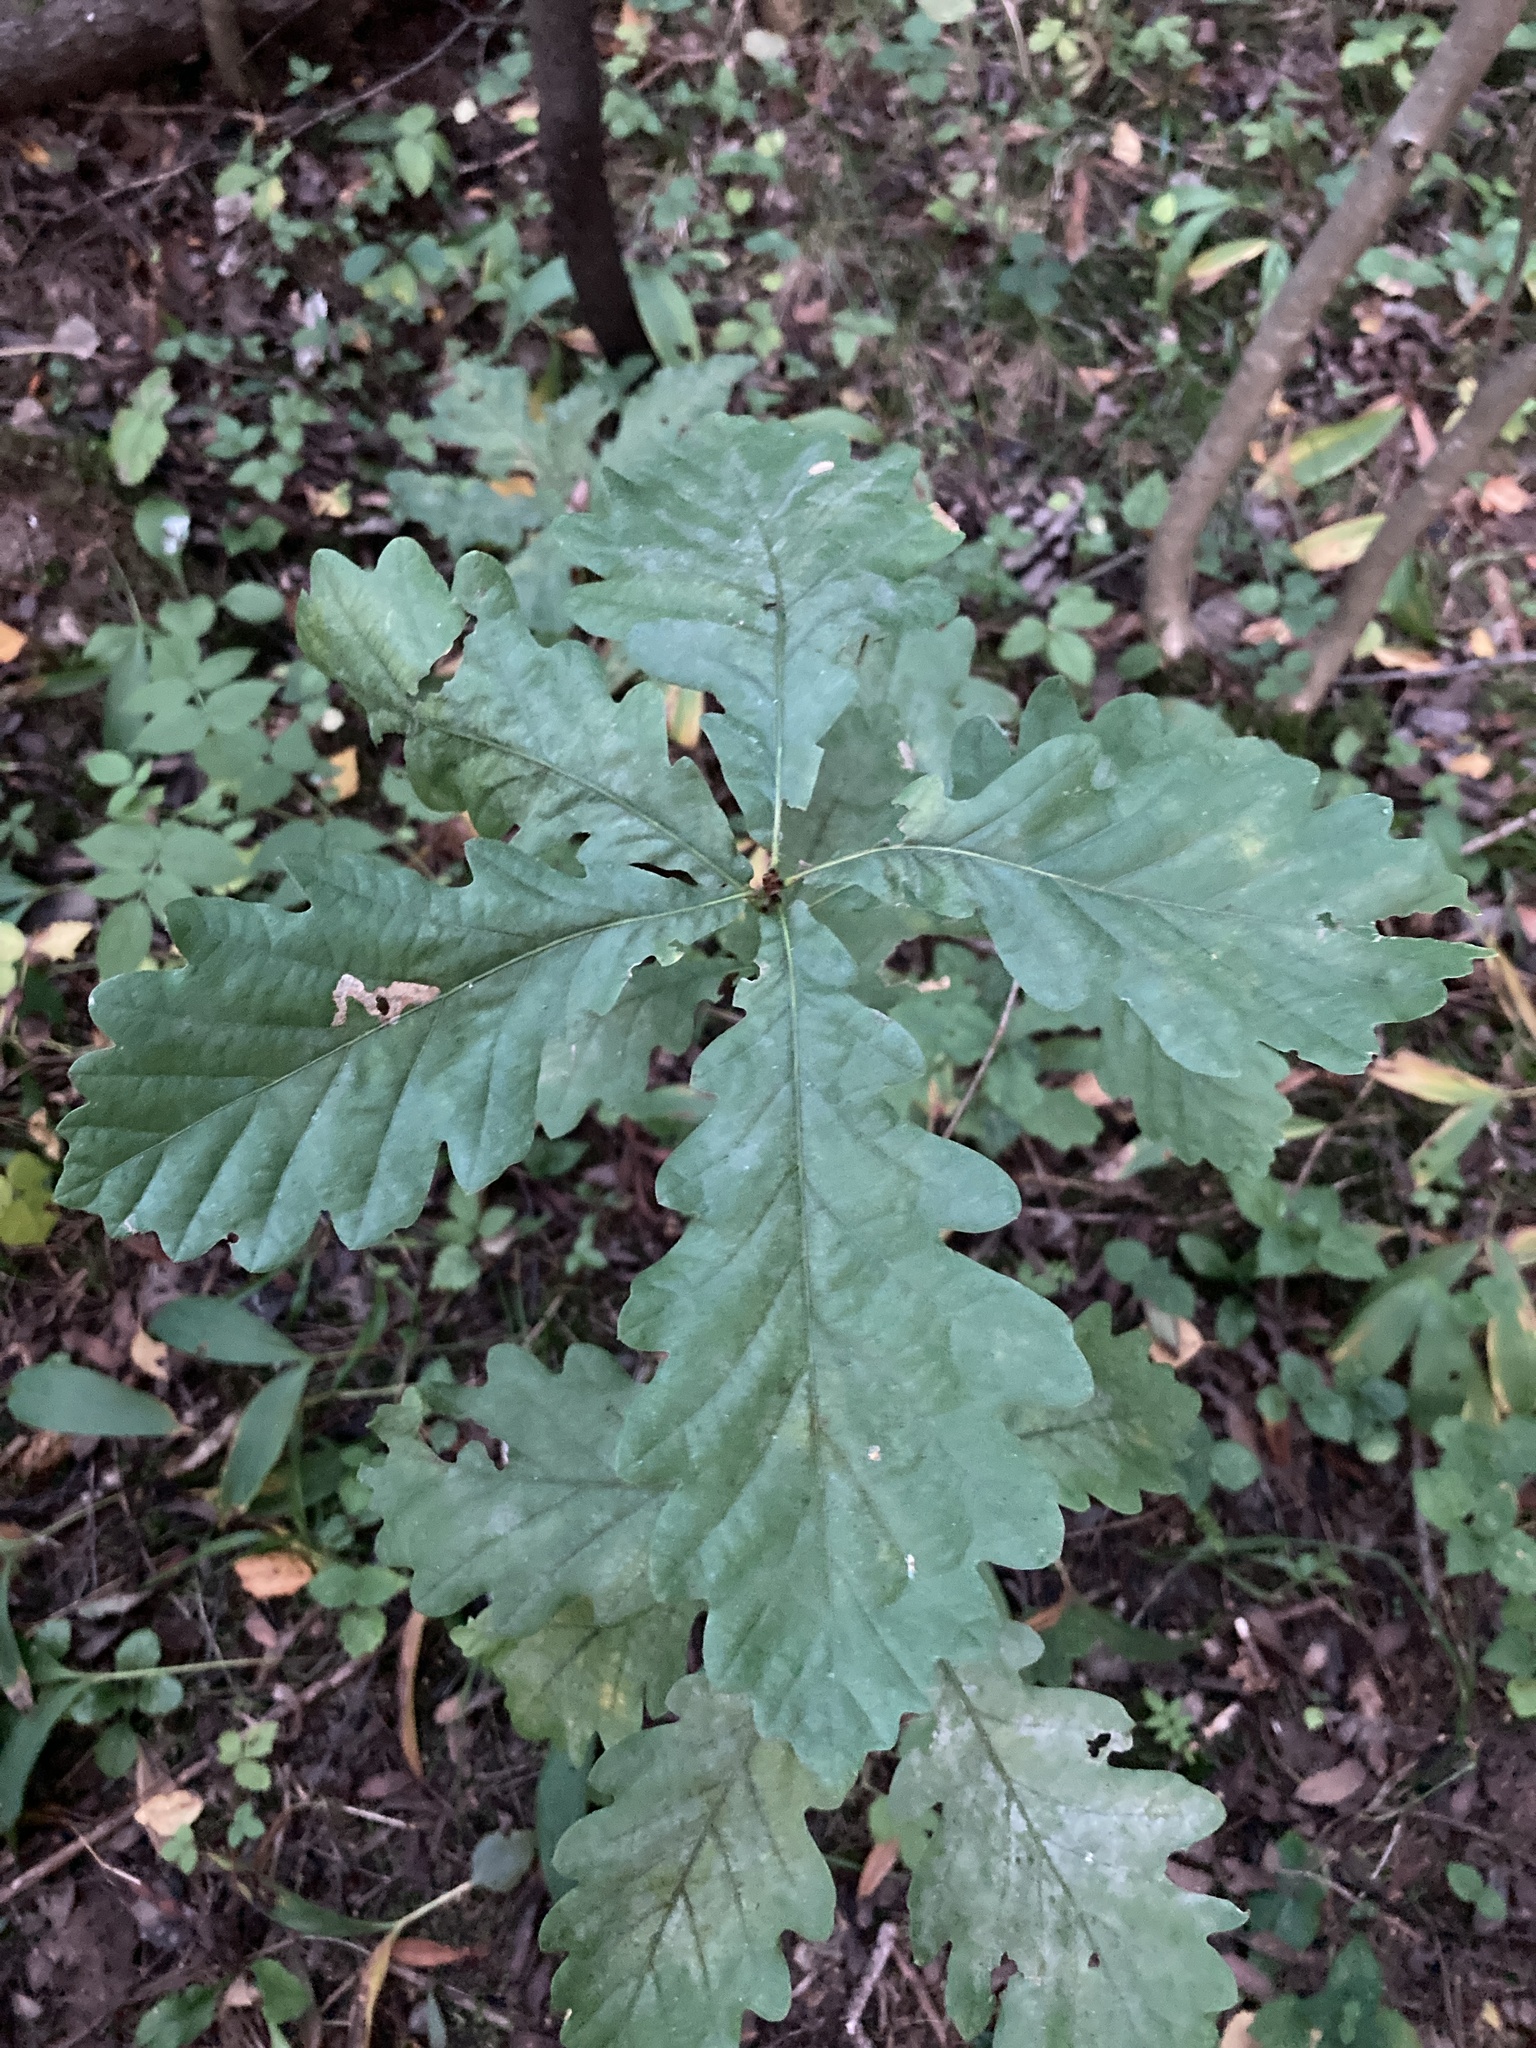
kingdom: Plantae
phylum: Tracheophyta
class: Magnoliopsida
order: Fagales
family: Fagaceae
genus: Quercus
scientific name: Quercus robur
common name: Pedunculate oak
